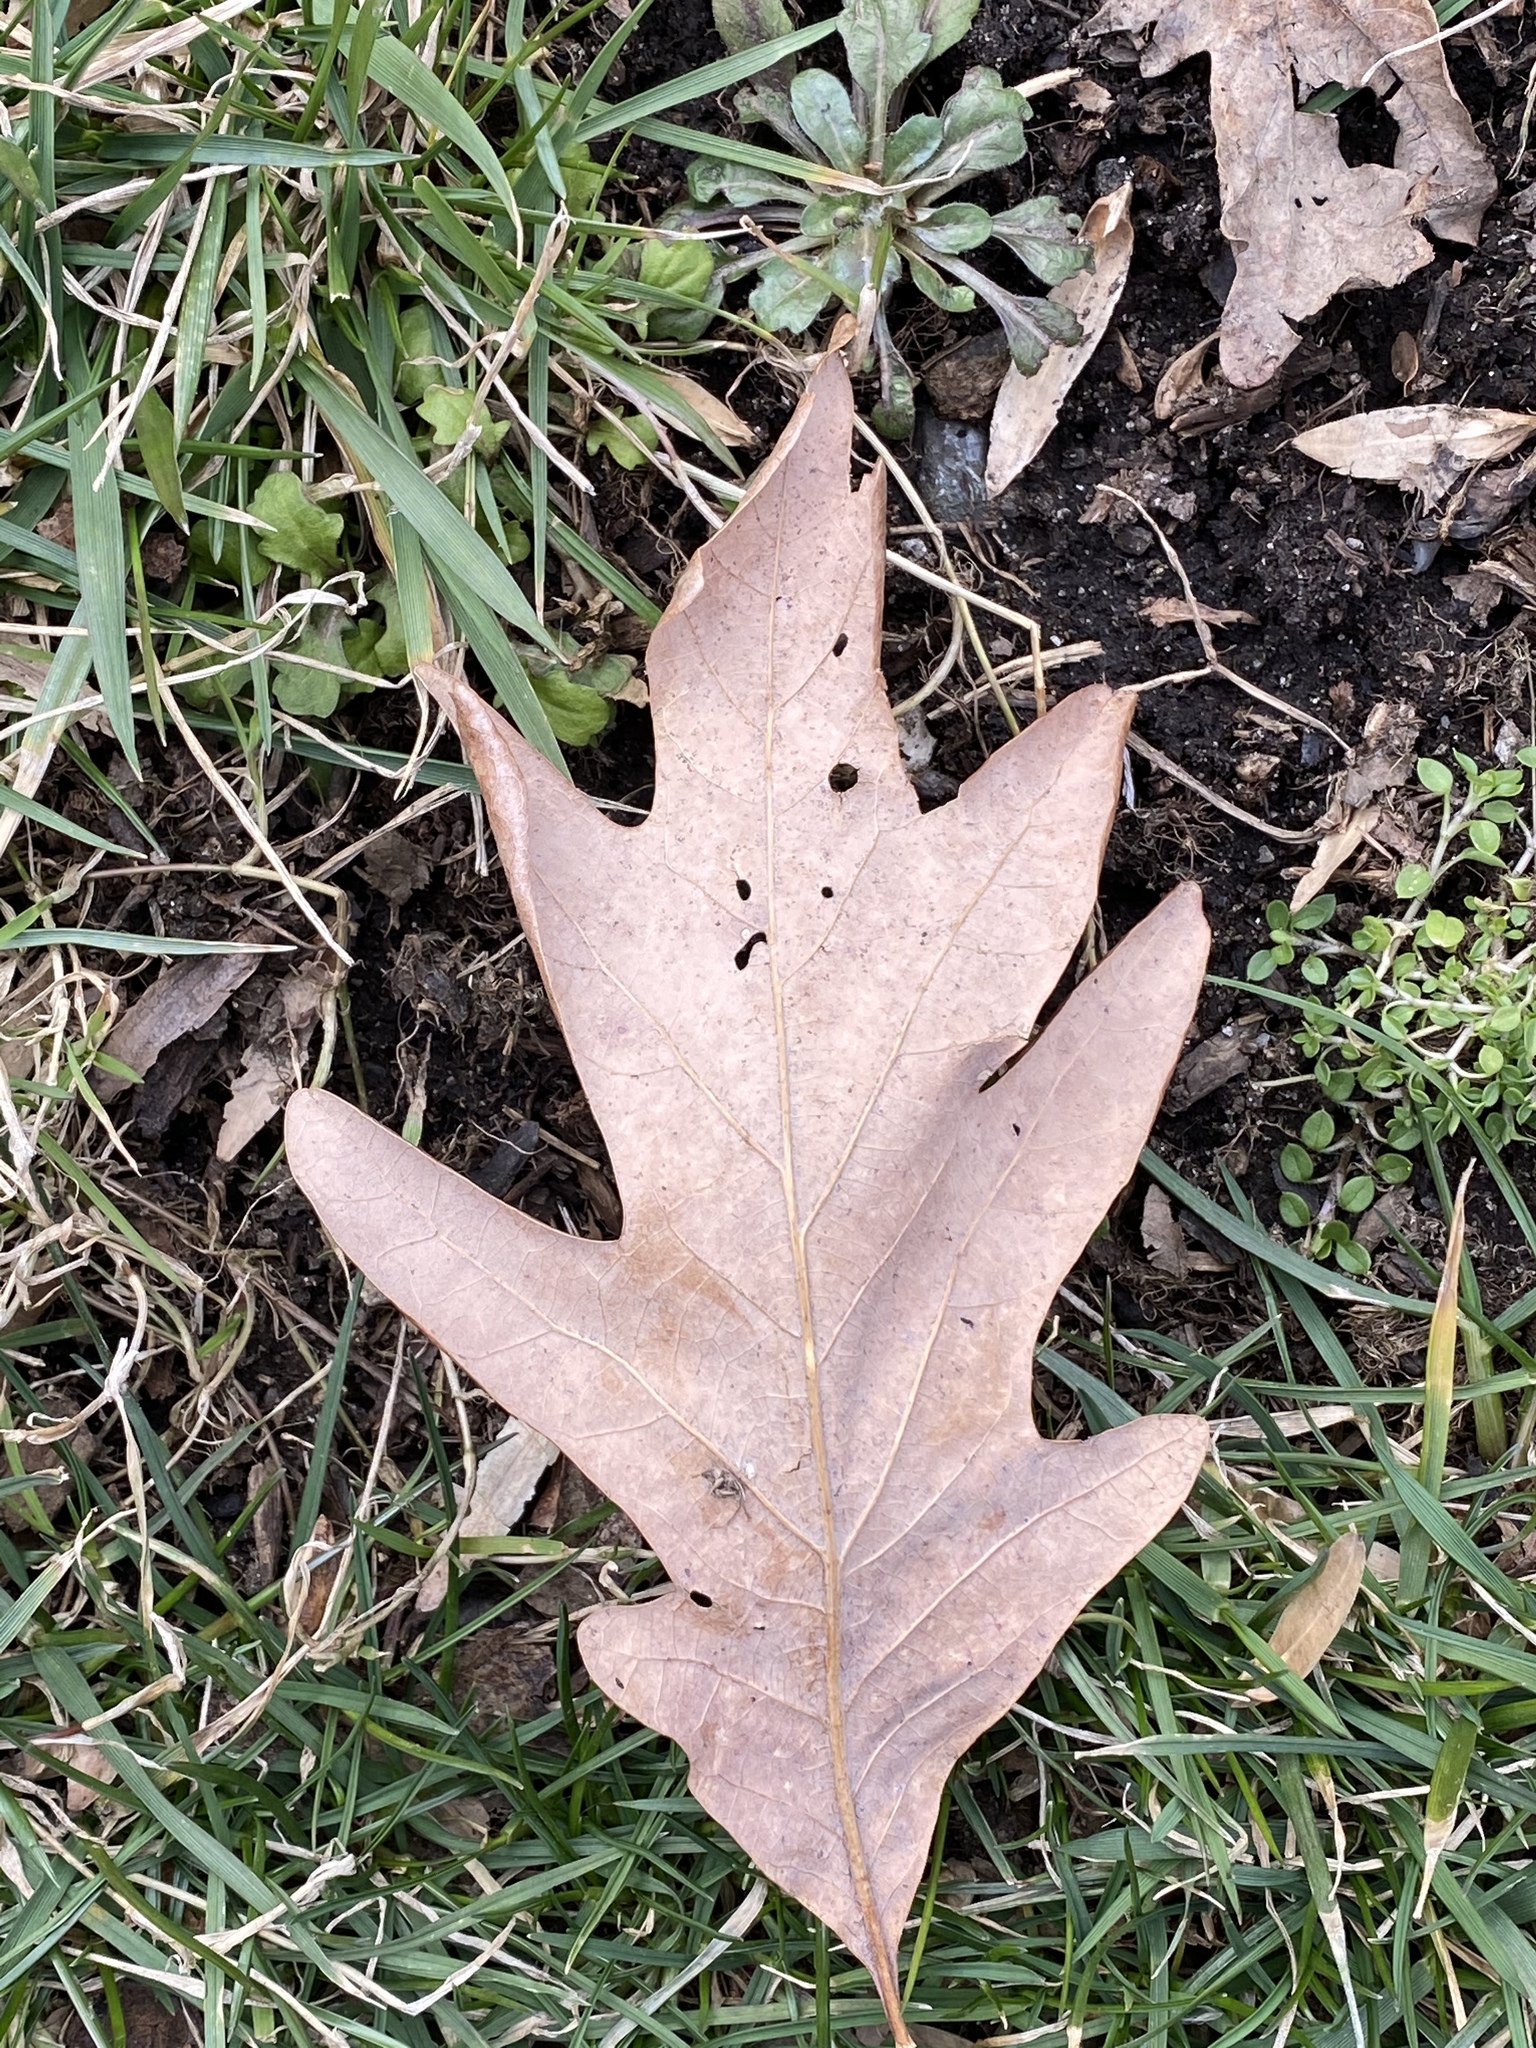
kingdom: Plantae
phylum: Tracheophyta
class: Magnoliopsida
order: Fagales
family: Fagaceae
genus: Quercus
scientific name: Quercus alba
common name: White oak
